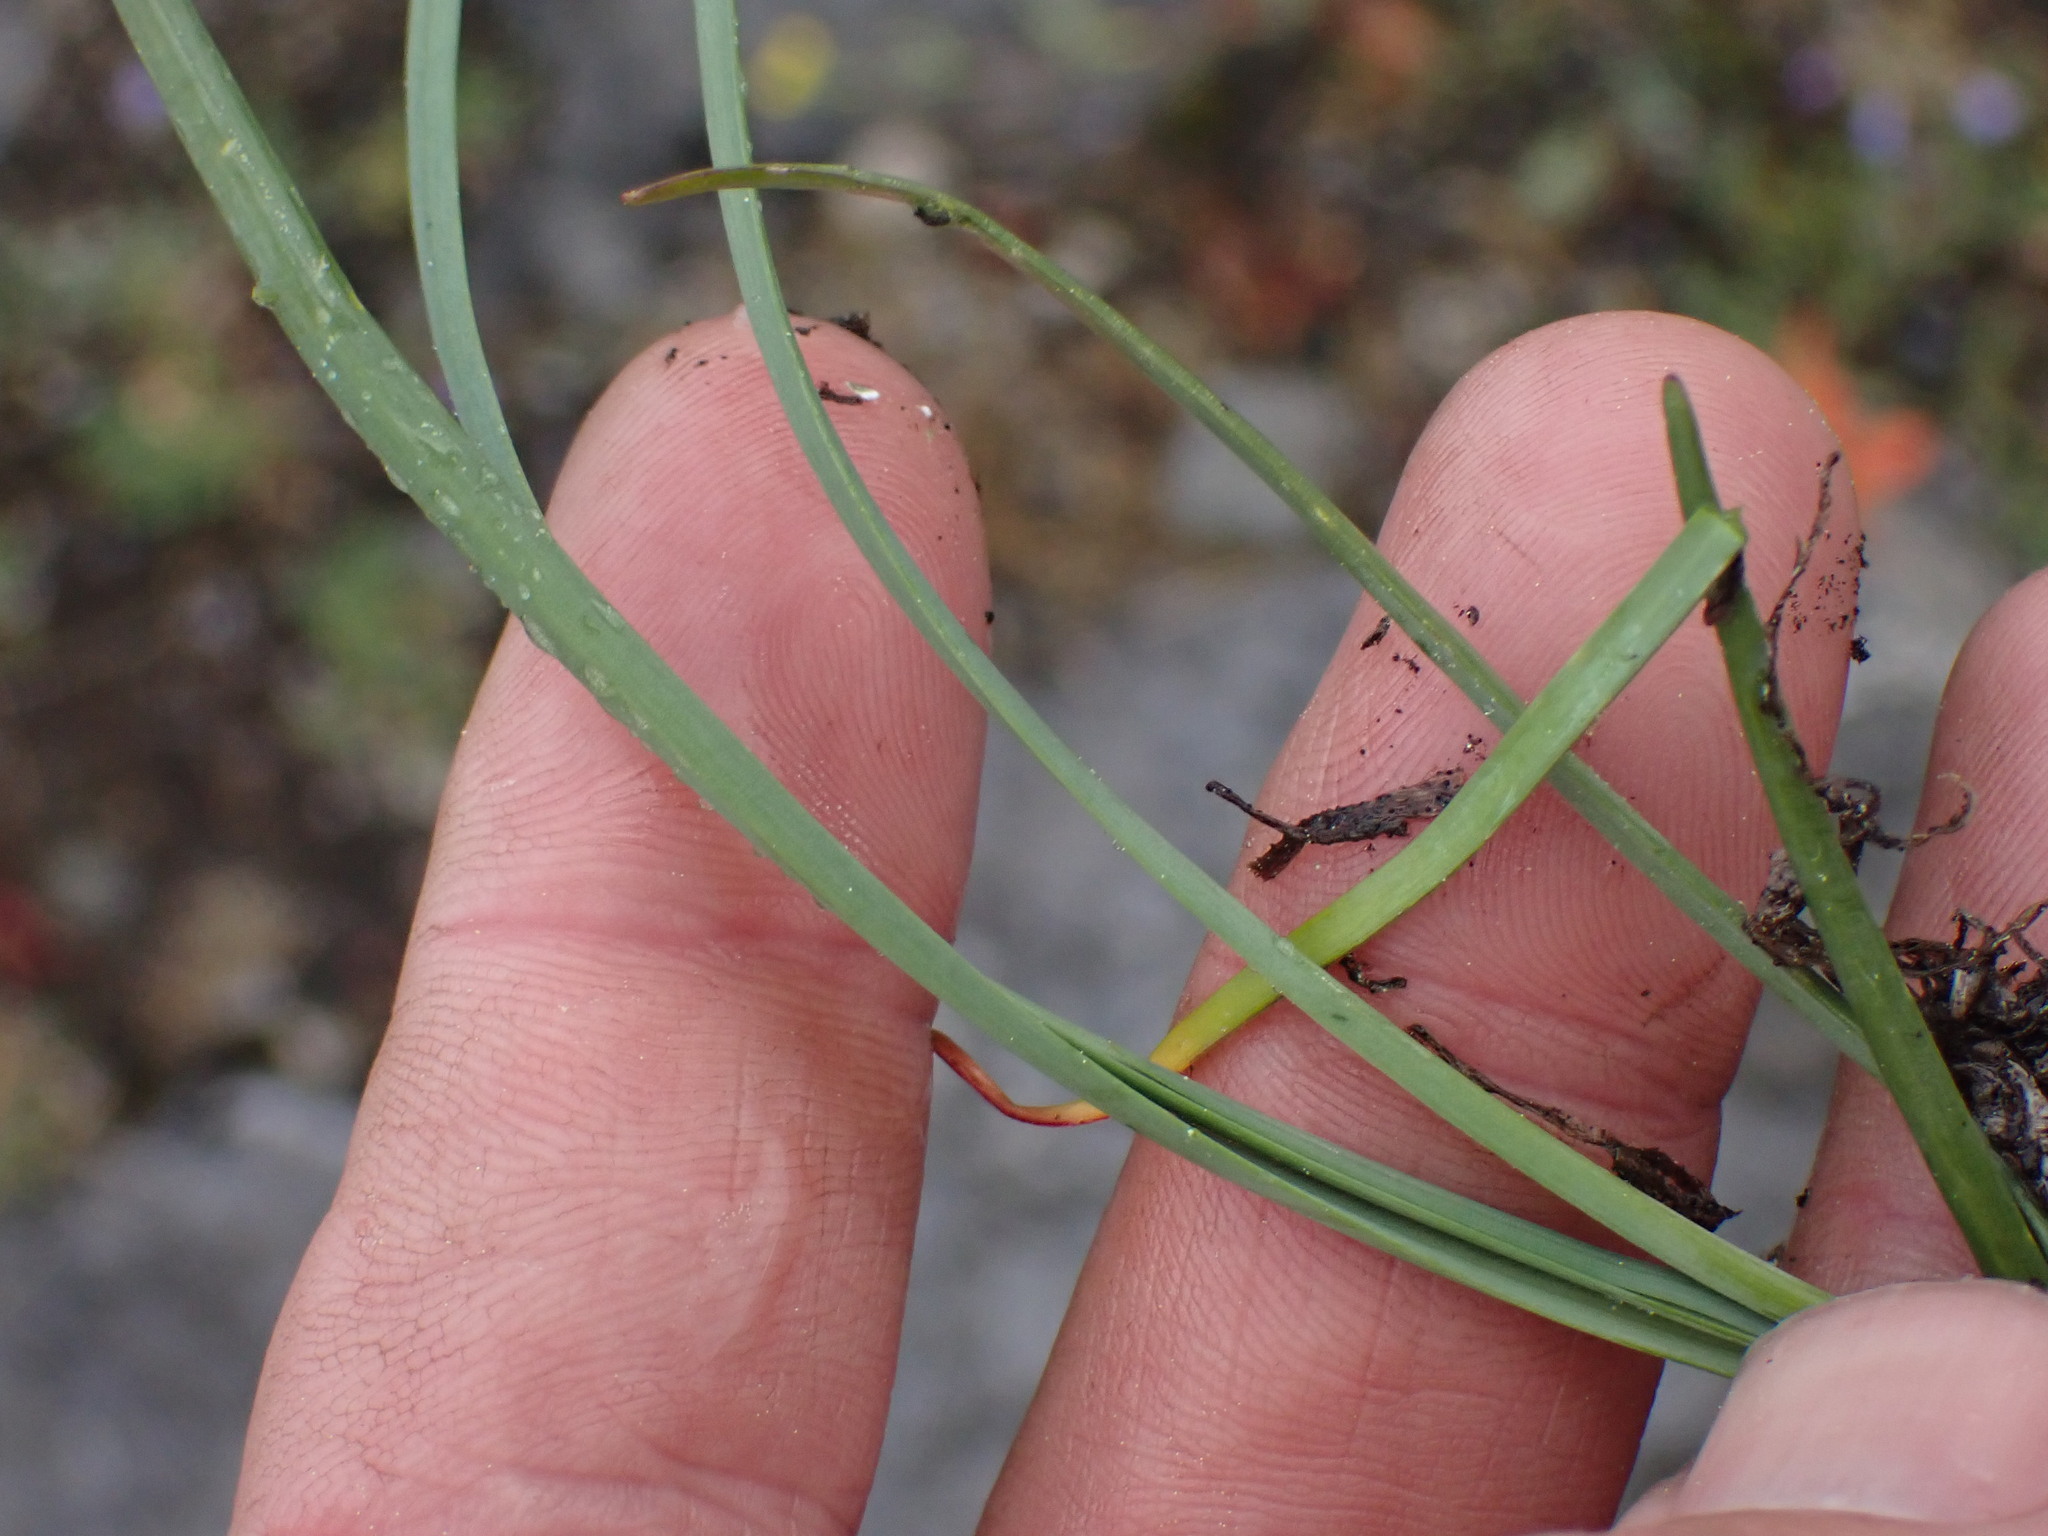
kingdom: Plantae
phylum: Tracheophyta
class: Liliopsida
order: Asparagales
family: Amaryllidaceae
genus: Allium
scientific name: Allium cernuum
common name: Nodding onion
